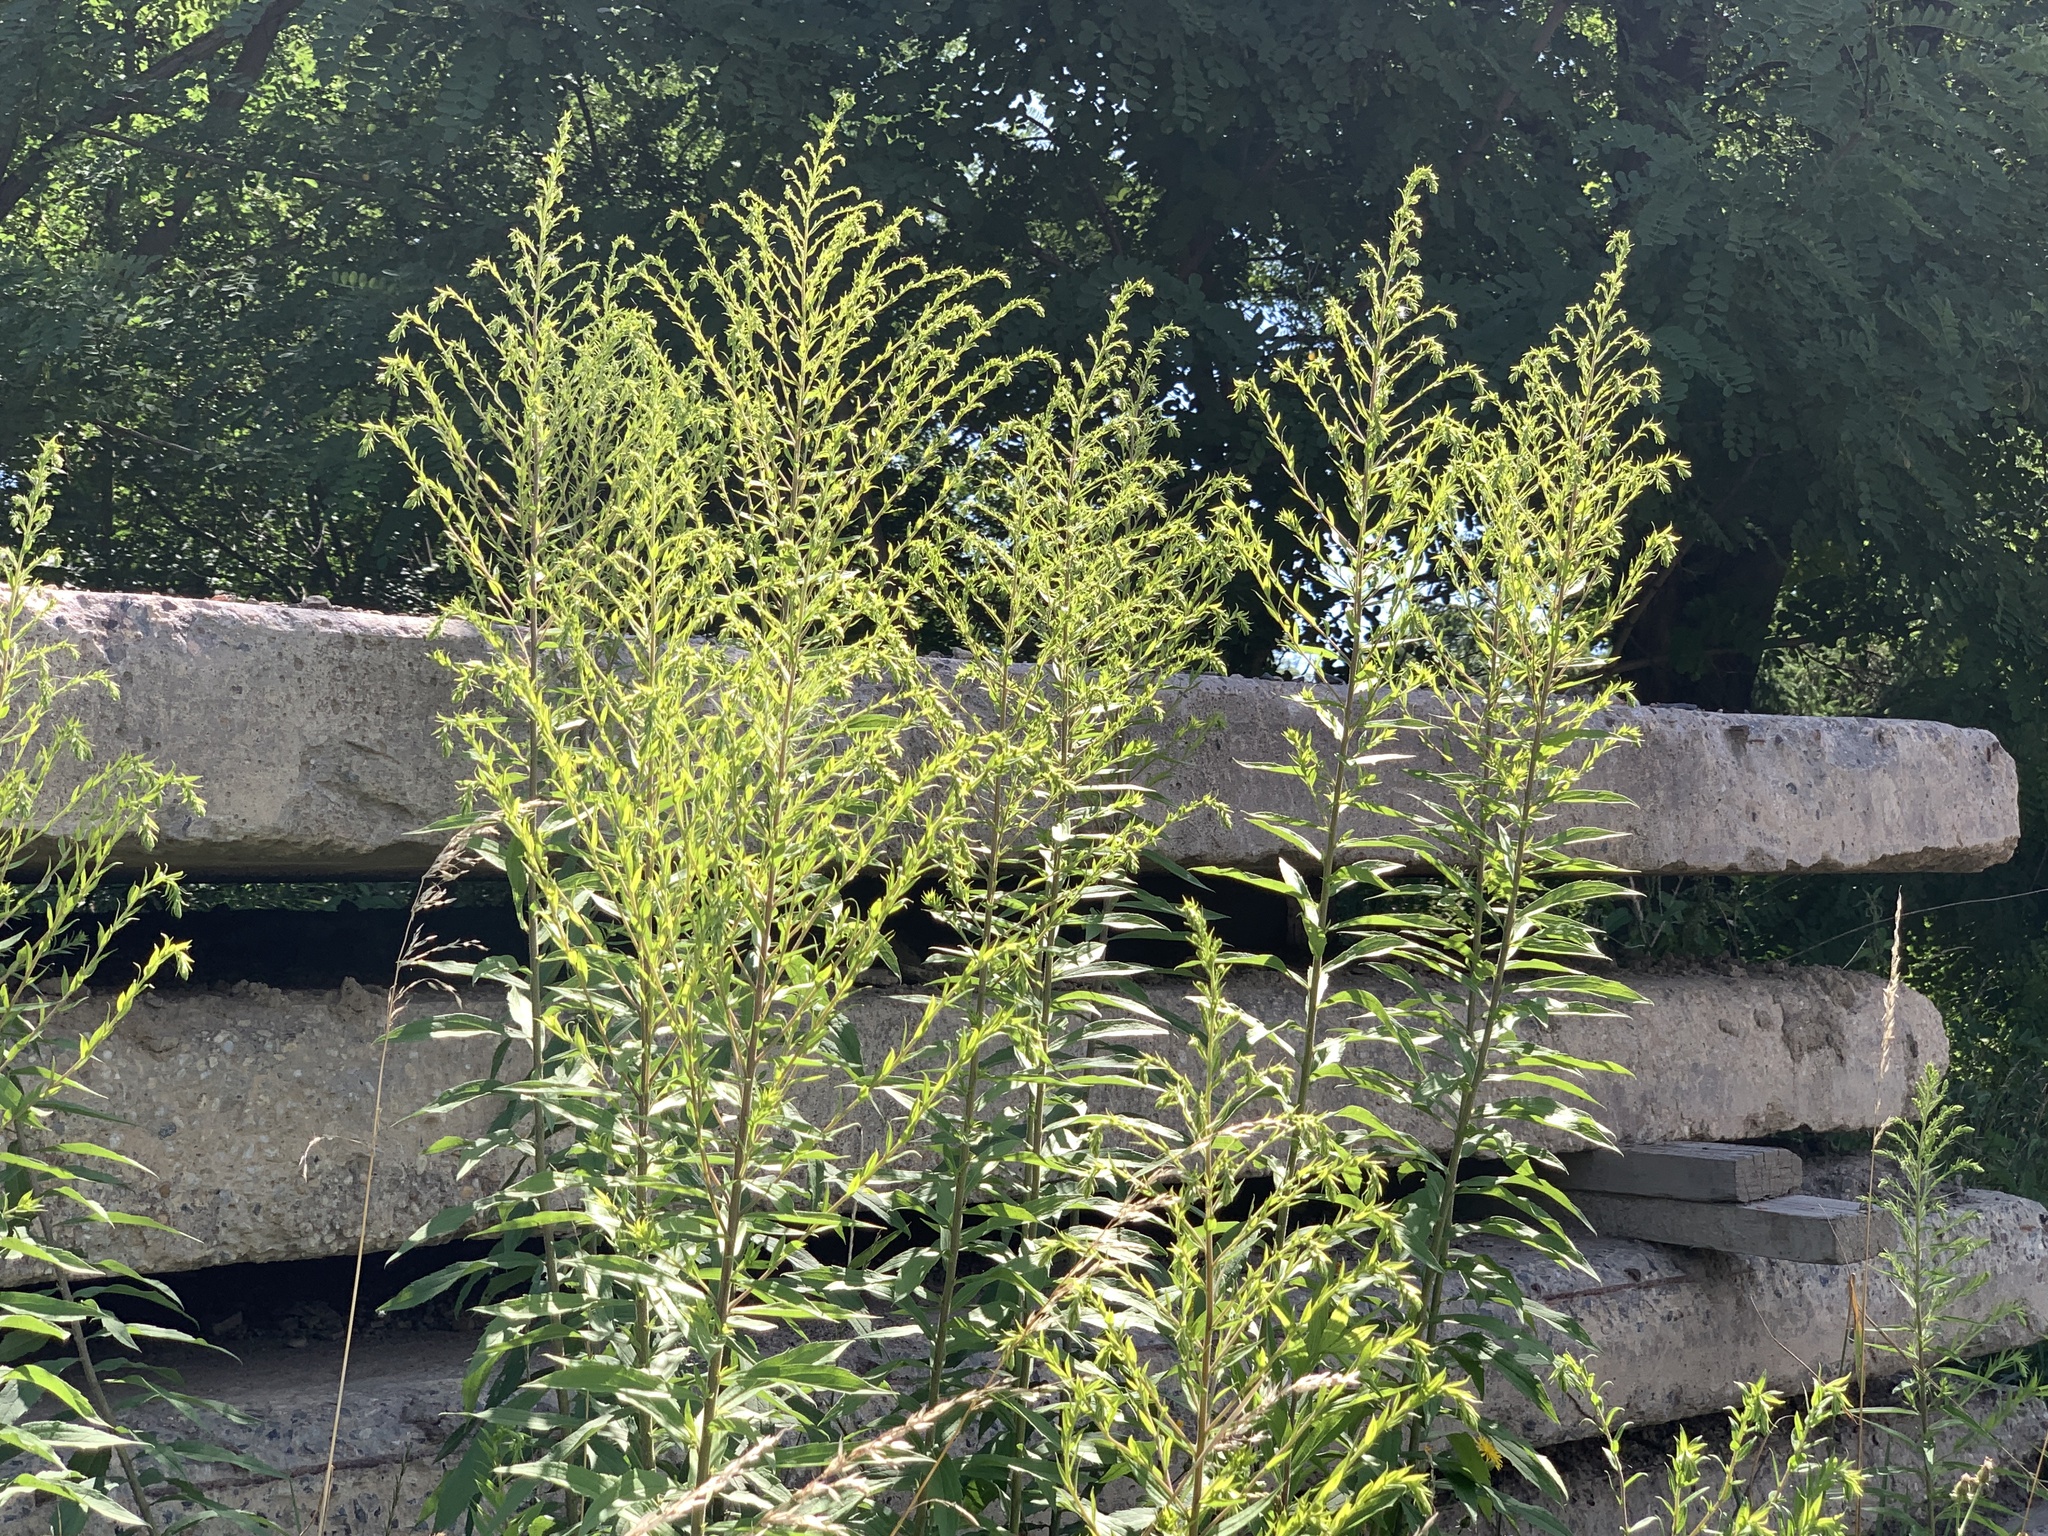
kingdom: Plantae
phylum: Tracheophyta
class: Magnoliopsida
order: Asterales
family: Asteraceae
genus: Solidago
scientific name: Solidago canadensis
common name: Canada goldenrod
